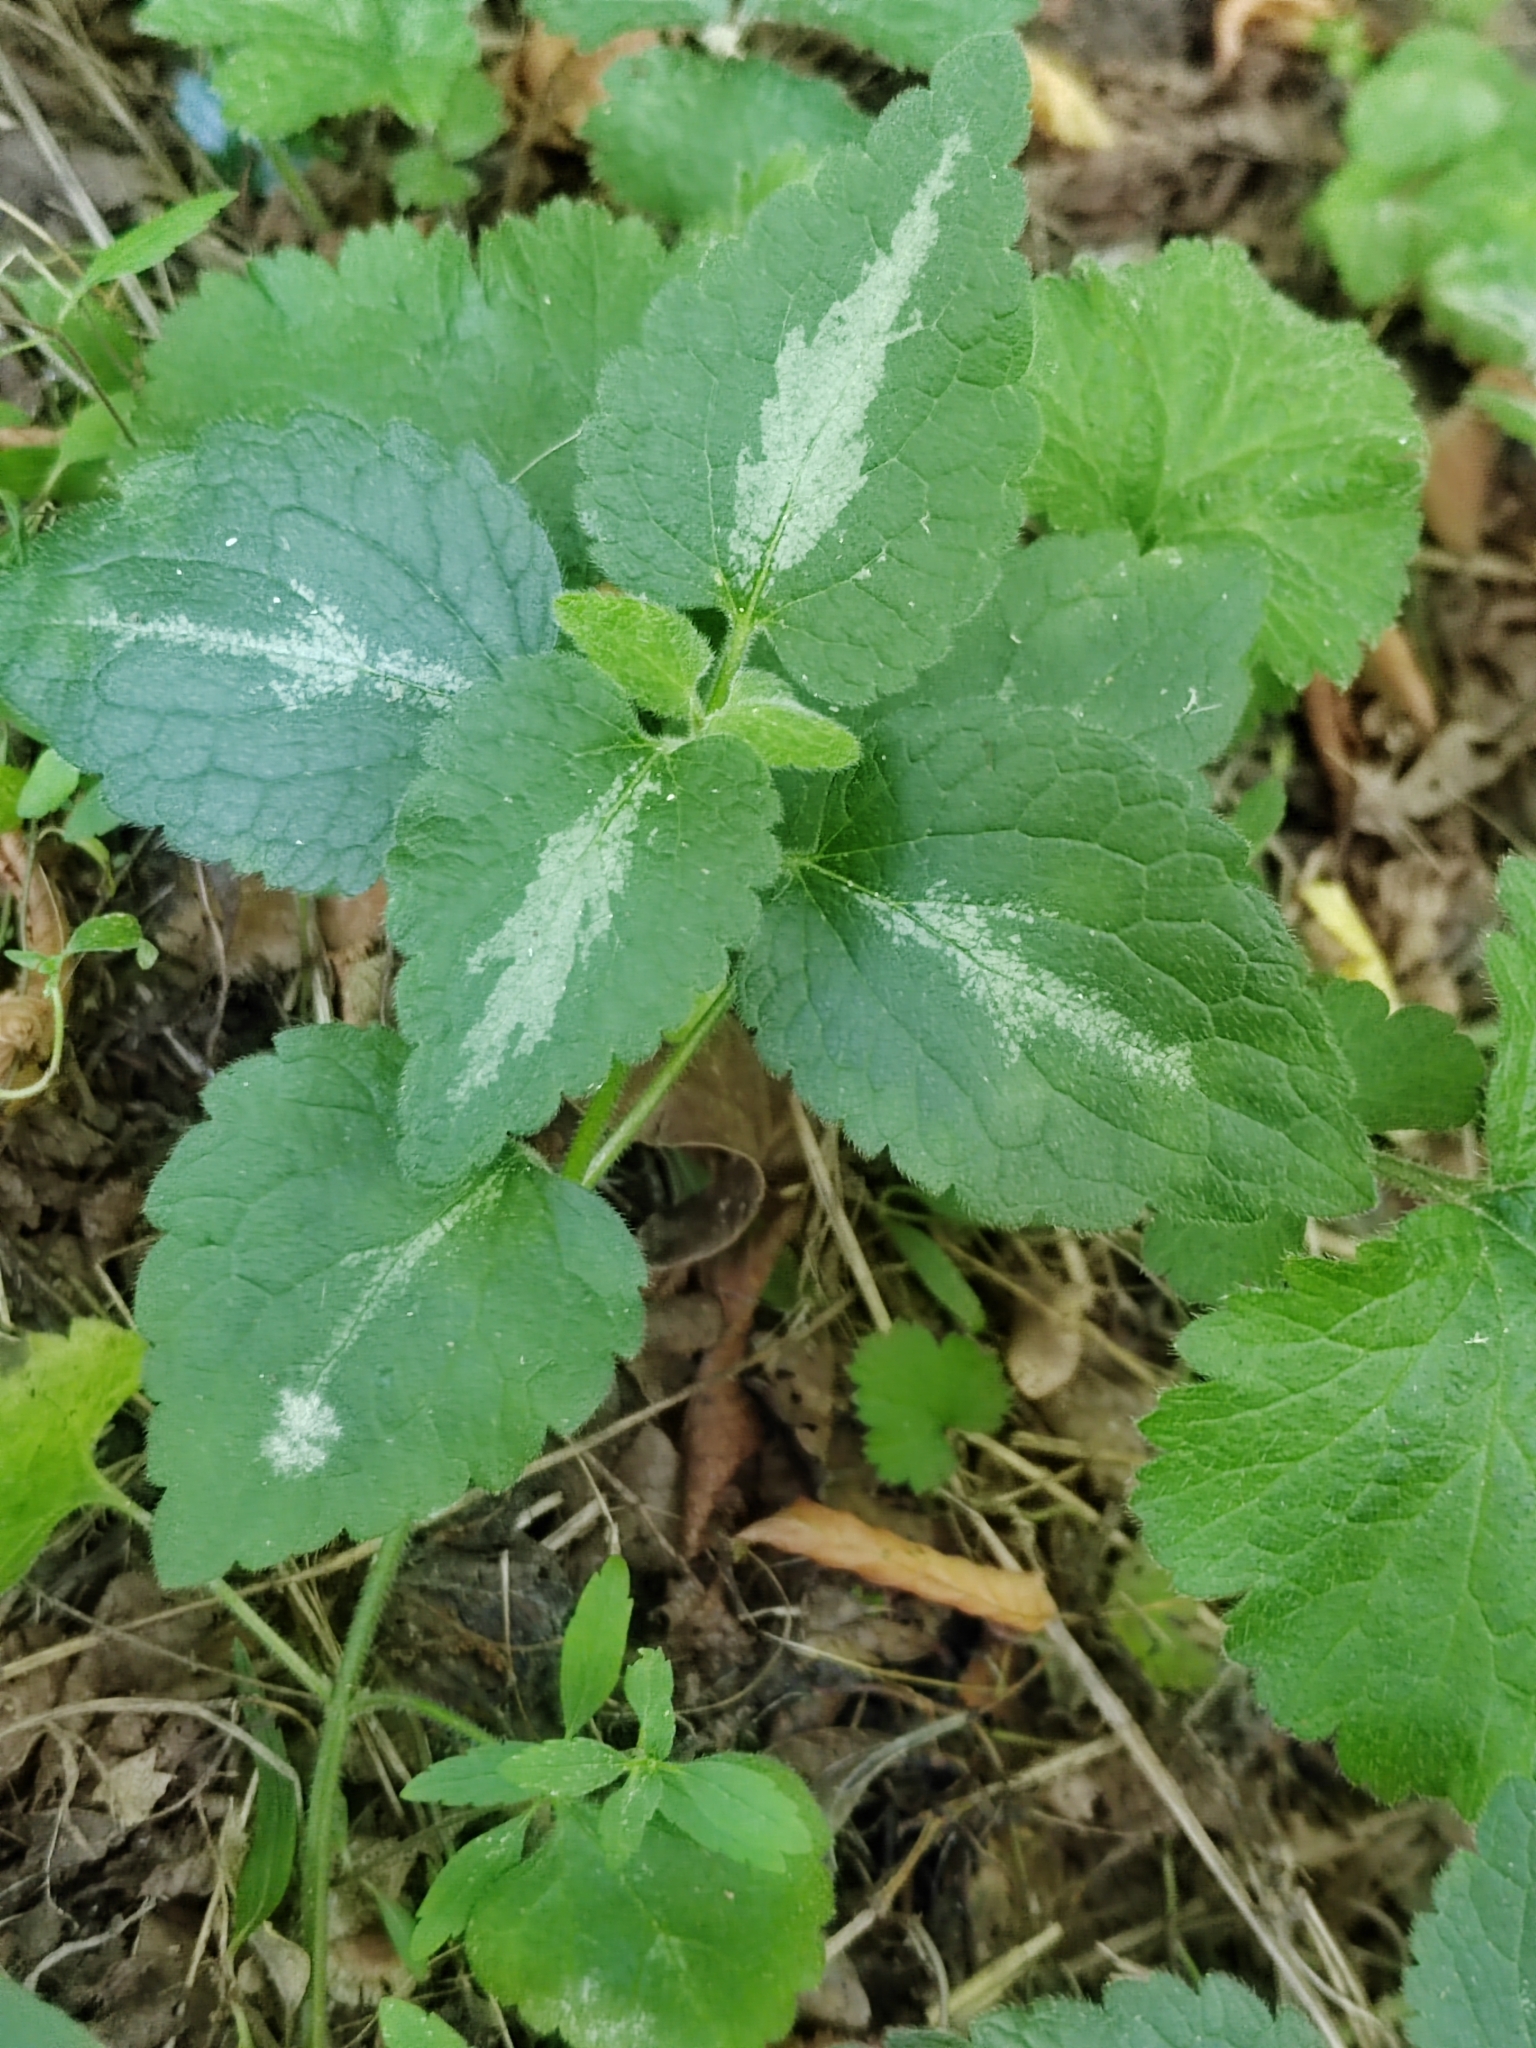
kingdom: Plantae
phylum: Tracheophyta
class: Magnoliopsida
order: Lamiales
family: Lamiaceae
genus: Lamium
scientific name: Lamium maculatum
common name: Spotted dead-nettle
